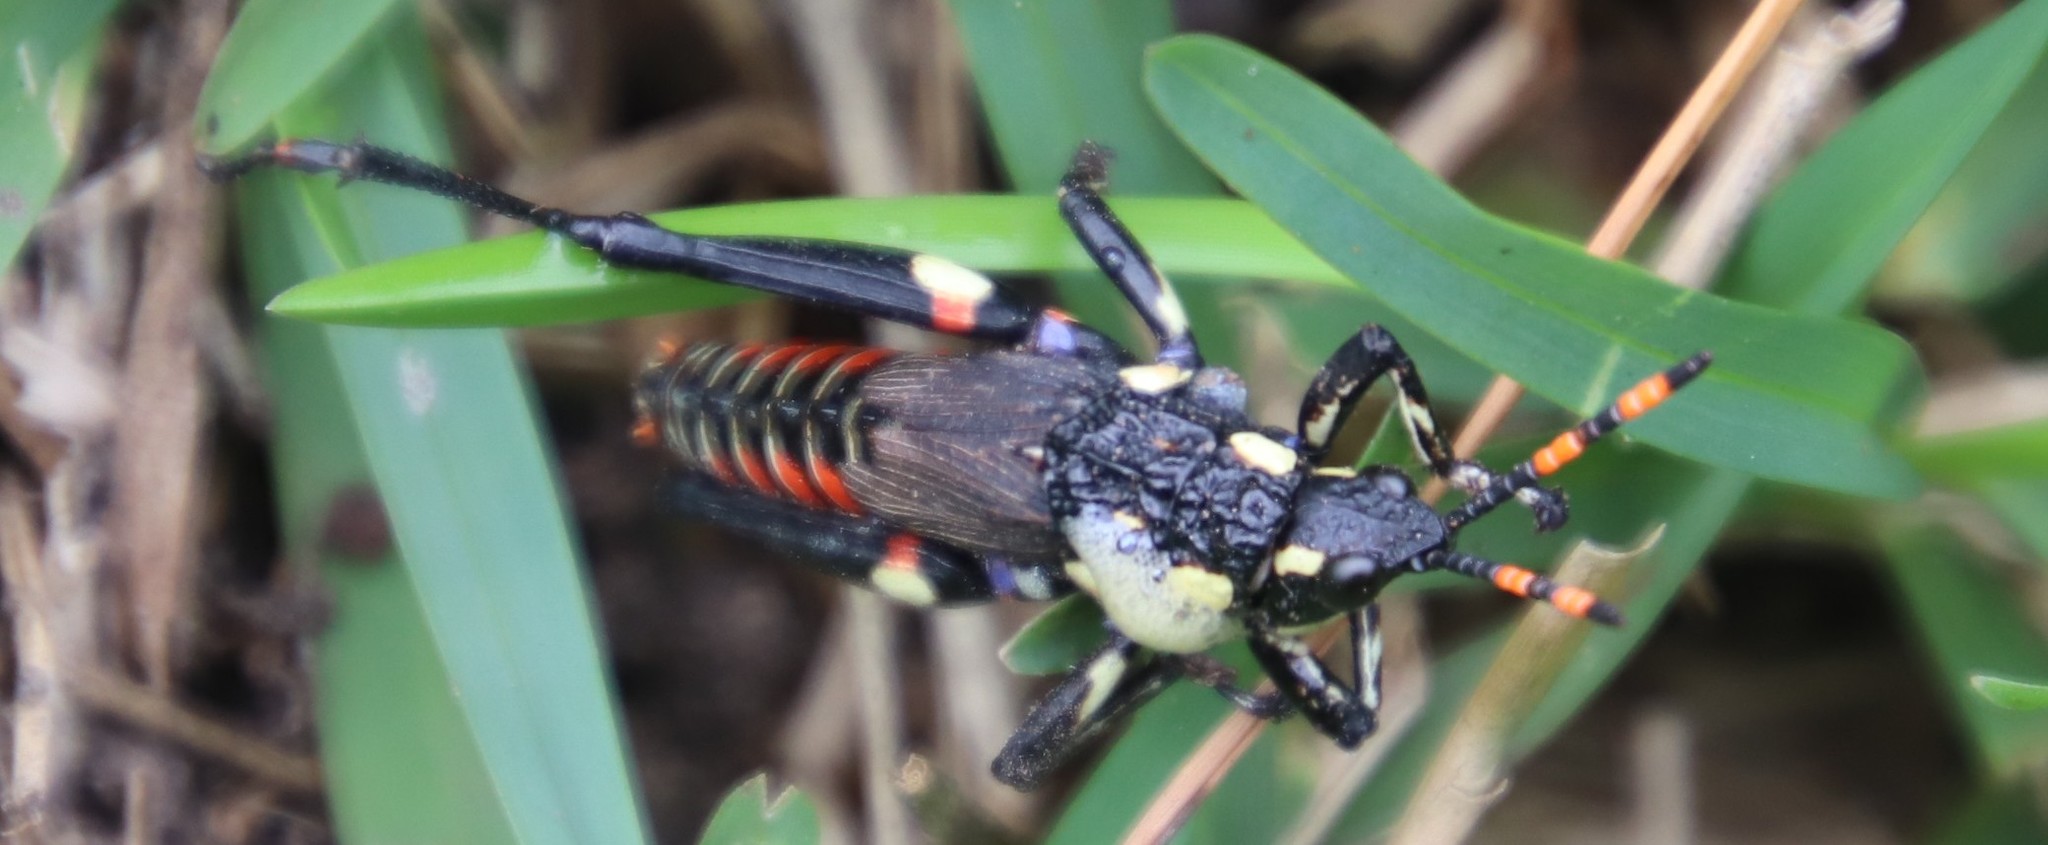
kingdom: Animalia
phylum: Arthropoda
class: Insecta
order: Orthoptera
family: Pyrgomorphidae
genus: Maura
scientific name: Maura rubroornata
